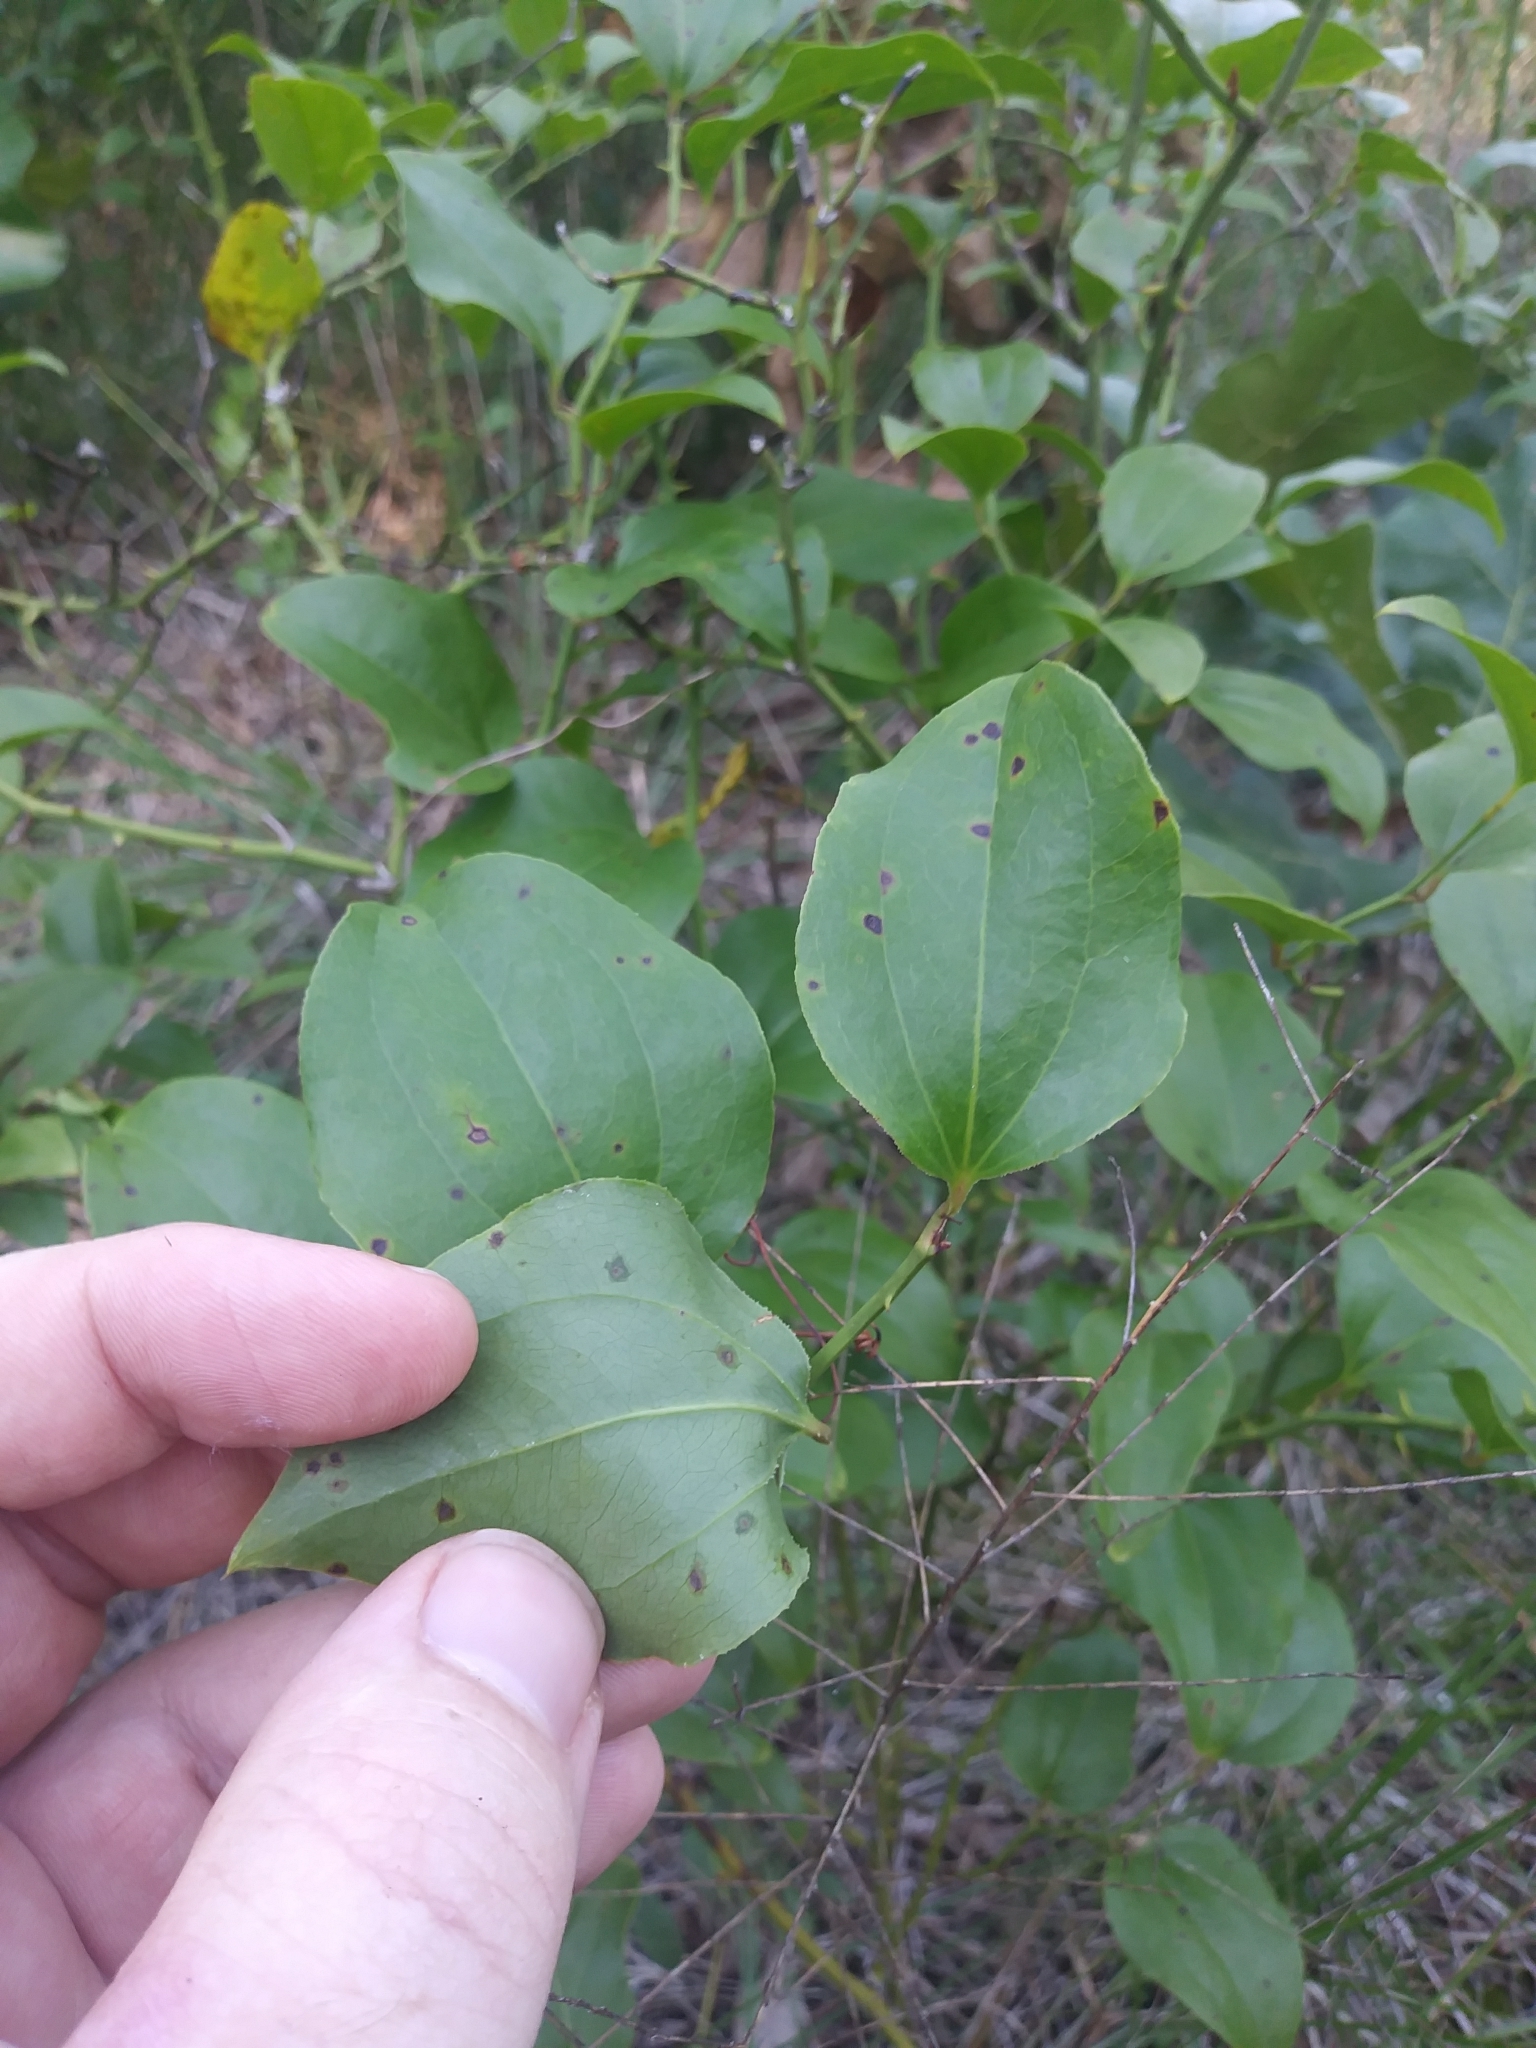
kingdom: Plantae
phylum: Tracheophyta
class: Liliopsida
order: Liliales
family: Smilacaceae
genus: Smilax
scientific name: Smilax rotundifolia
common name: Bullbriar
